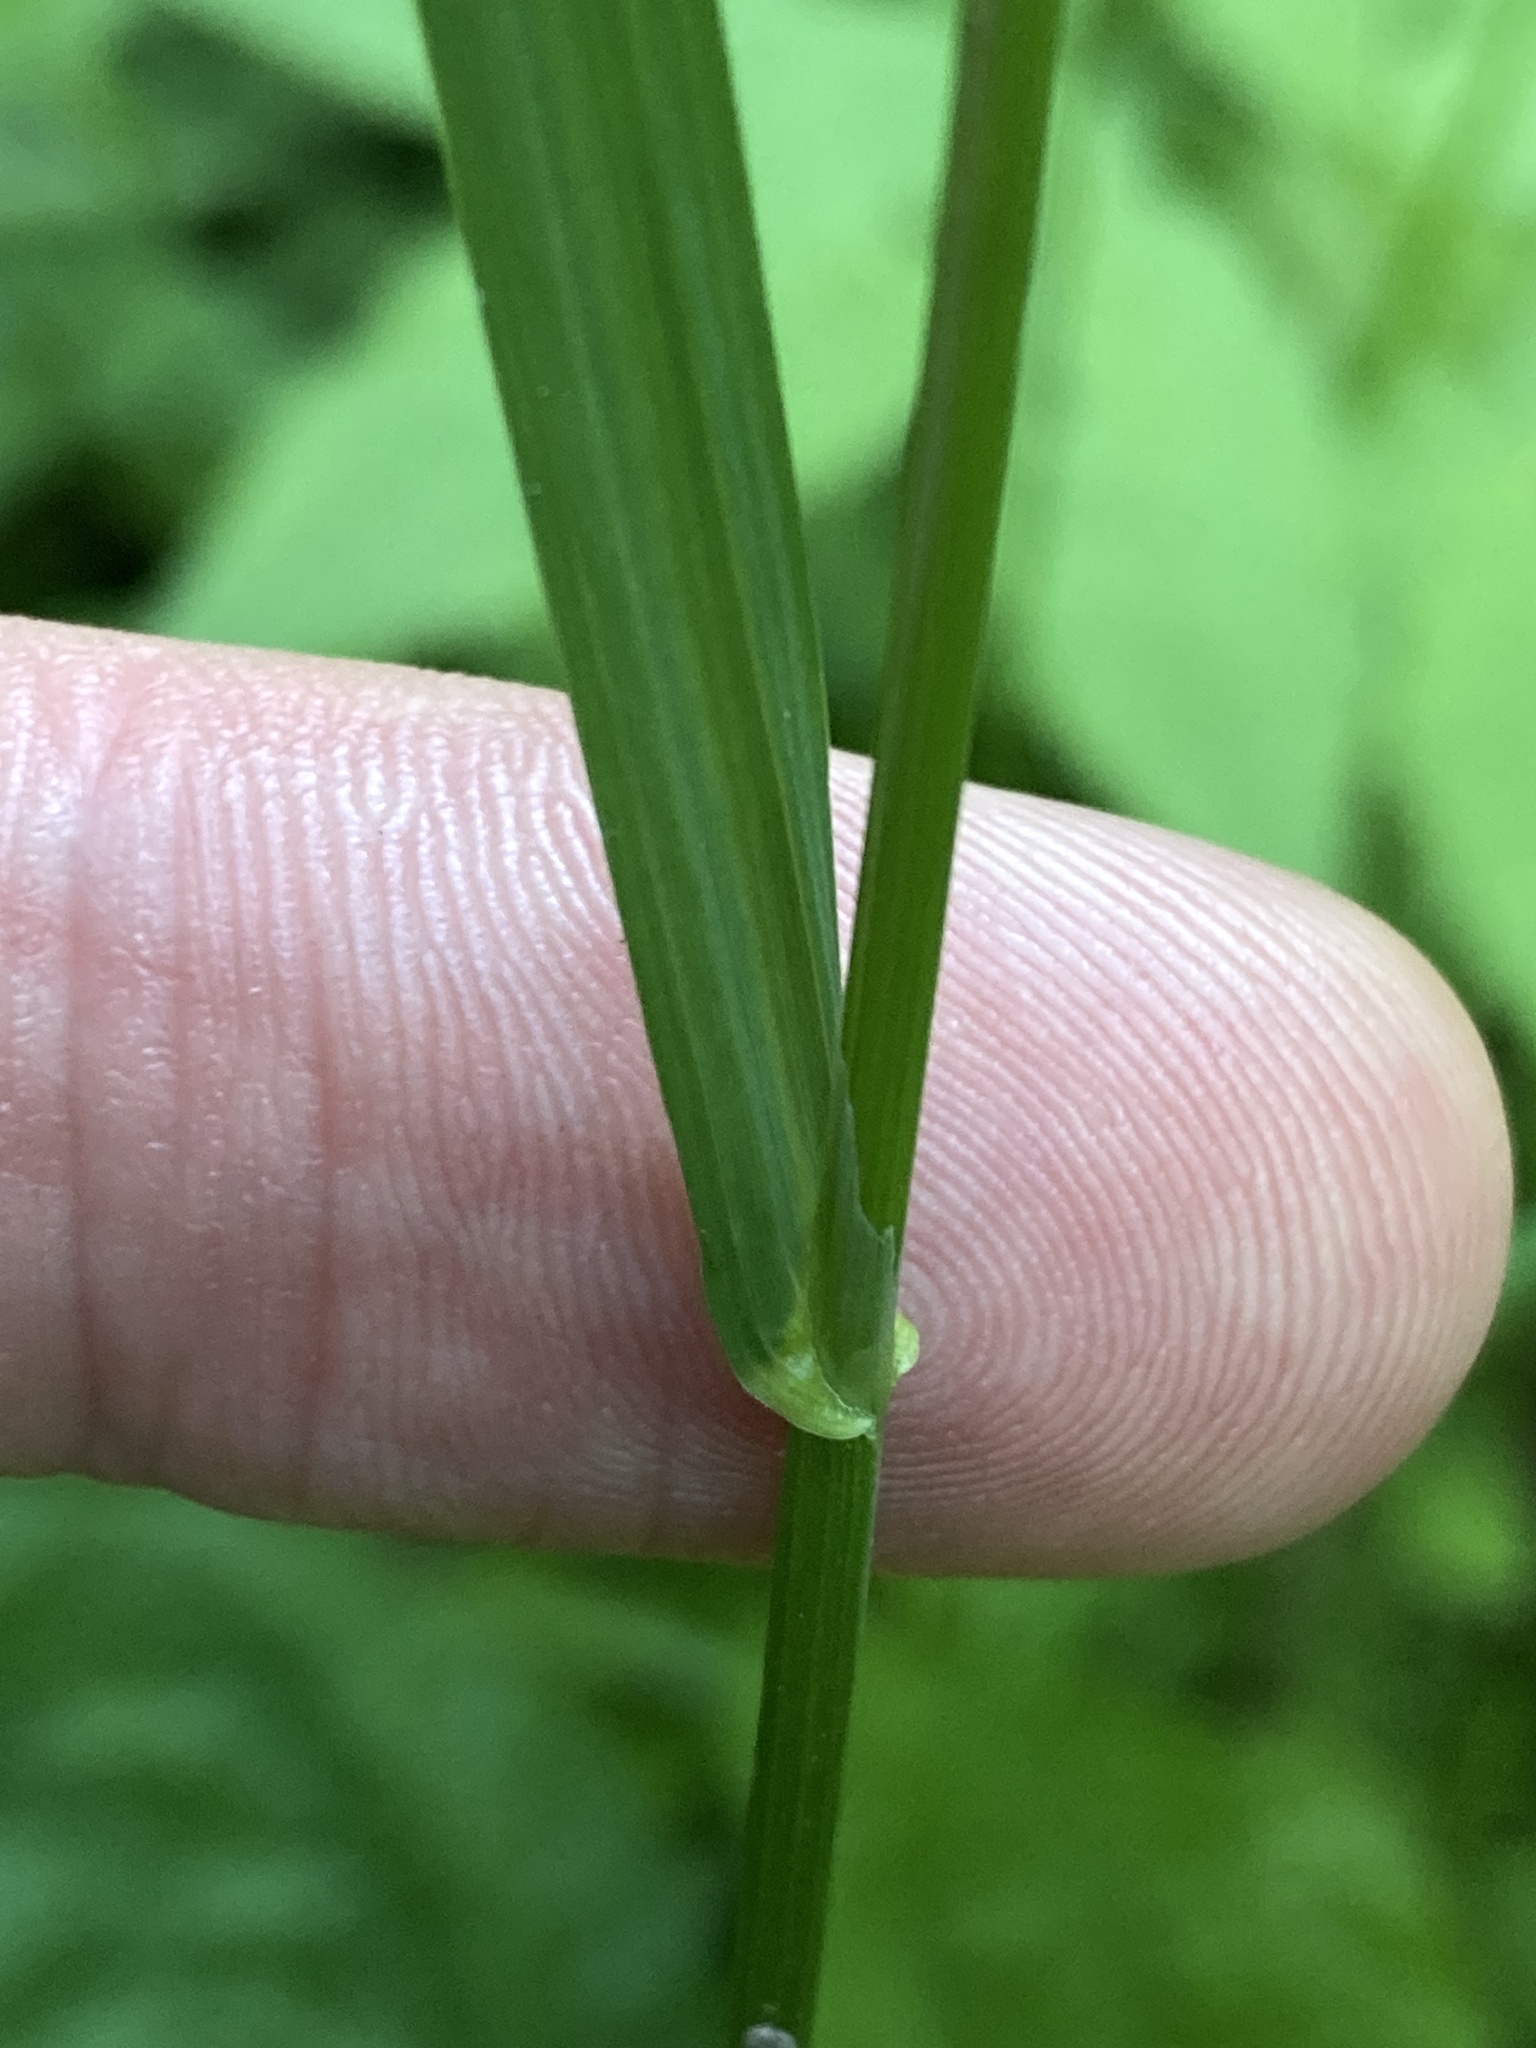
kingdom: Plantae
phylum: Tracheophyta
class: Liliopsida
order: Poales
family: Poaceae
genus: Poa
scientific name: Poa trivialis
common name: Rough bluegrass
